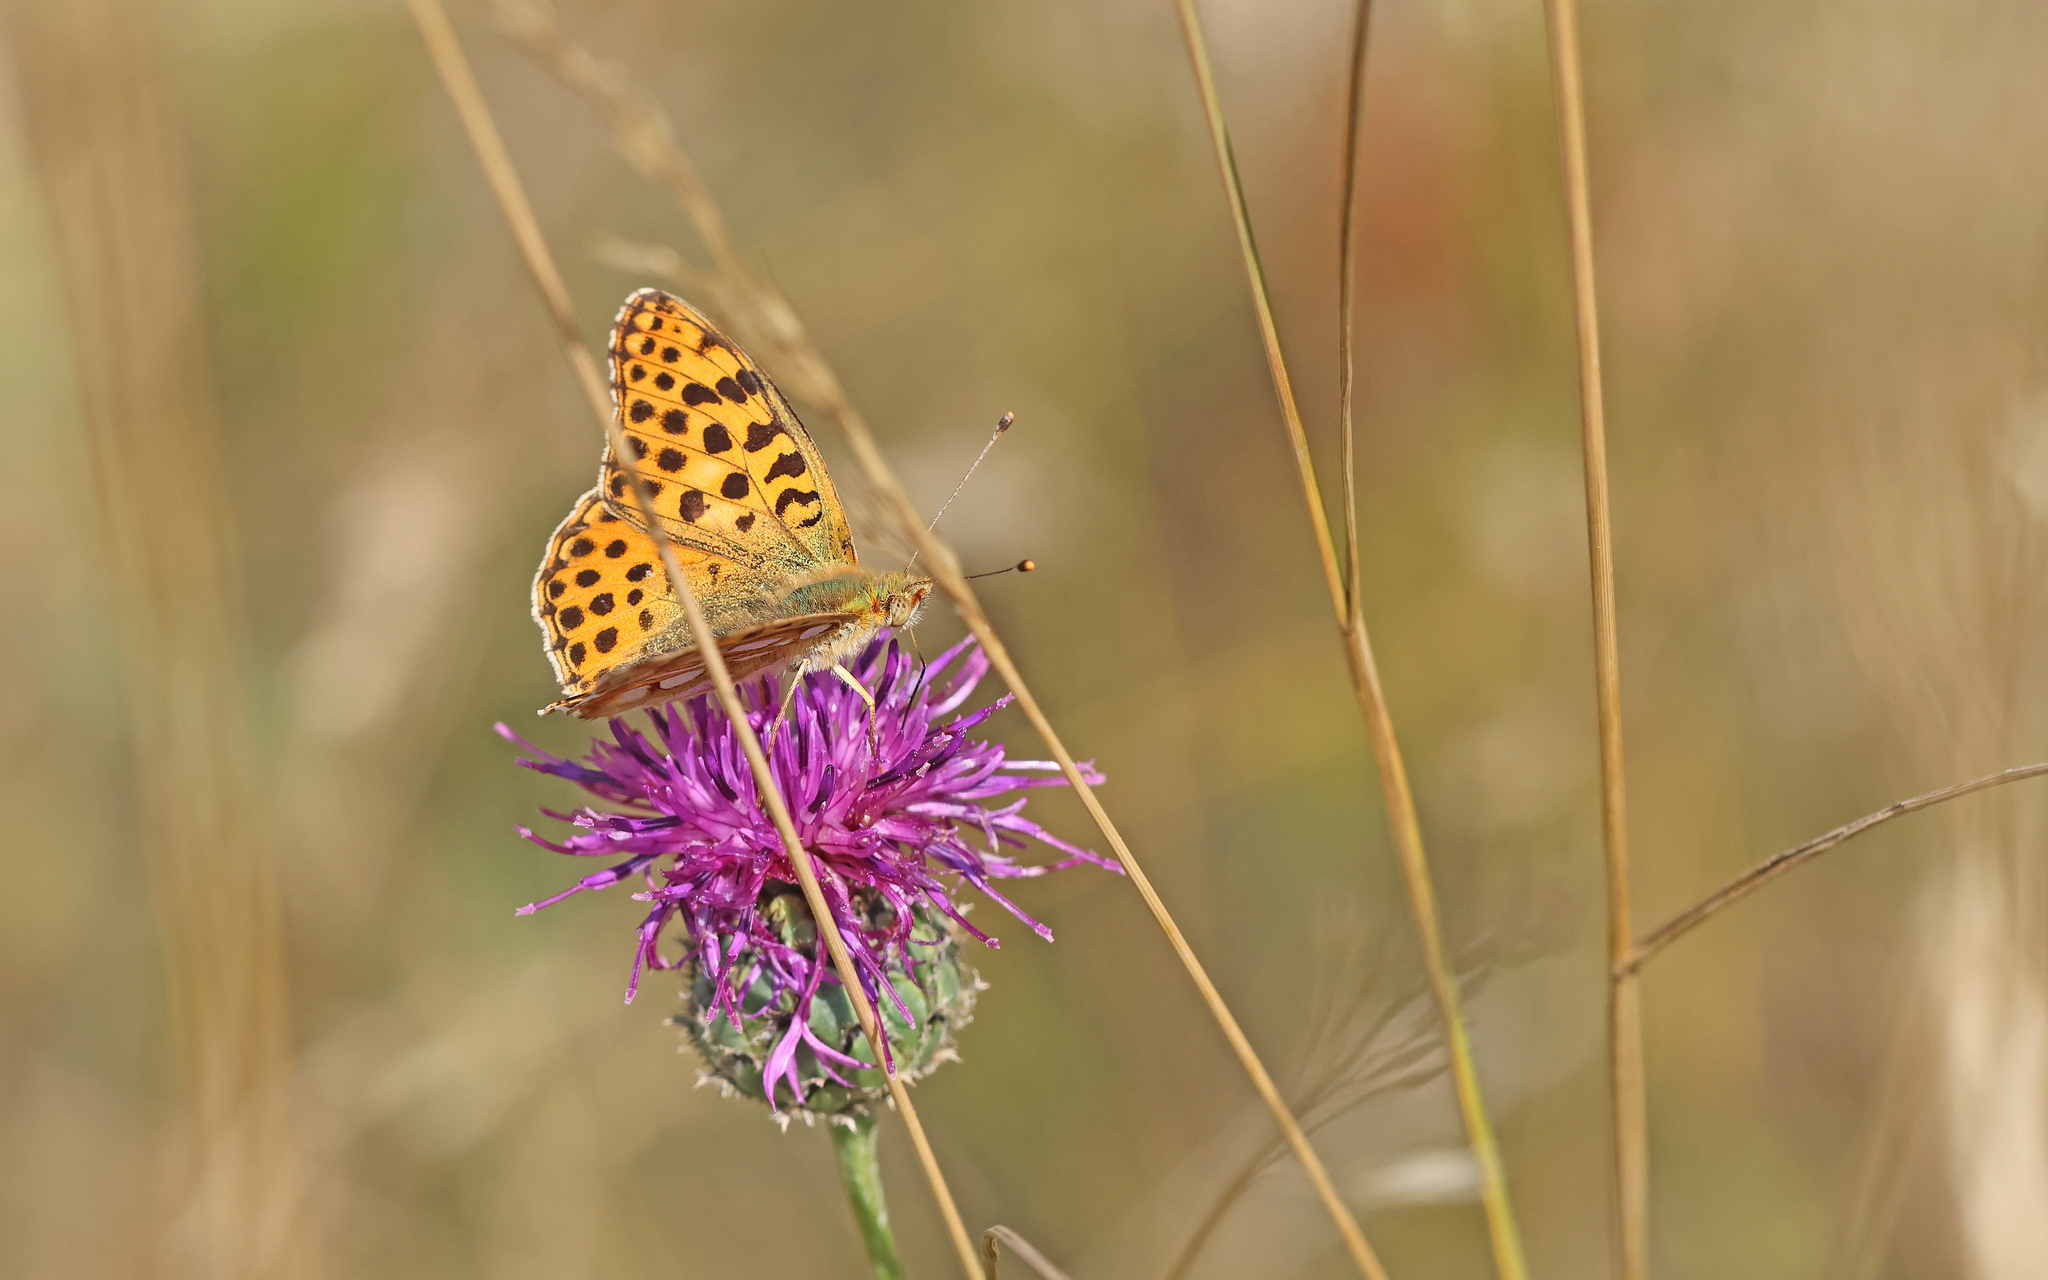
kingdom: Animalia
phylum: Arthropoda
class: Insecta
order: Lepidoptera
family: Nymphalidae
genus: Issoria
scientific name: Issoria lathonia
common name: Queen of spain fritillary
